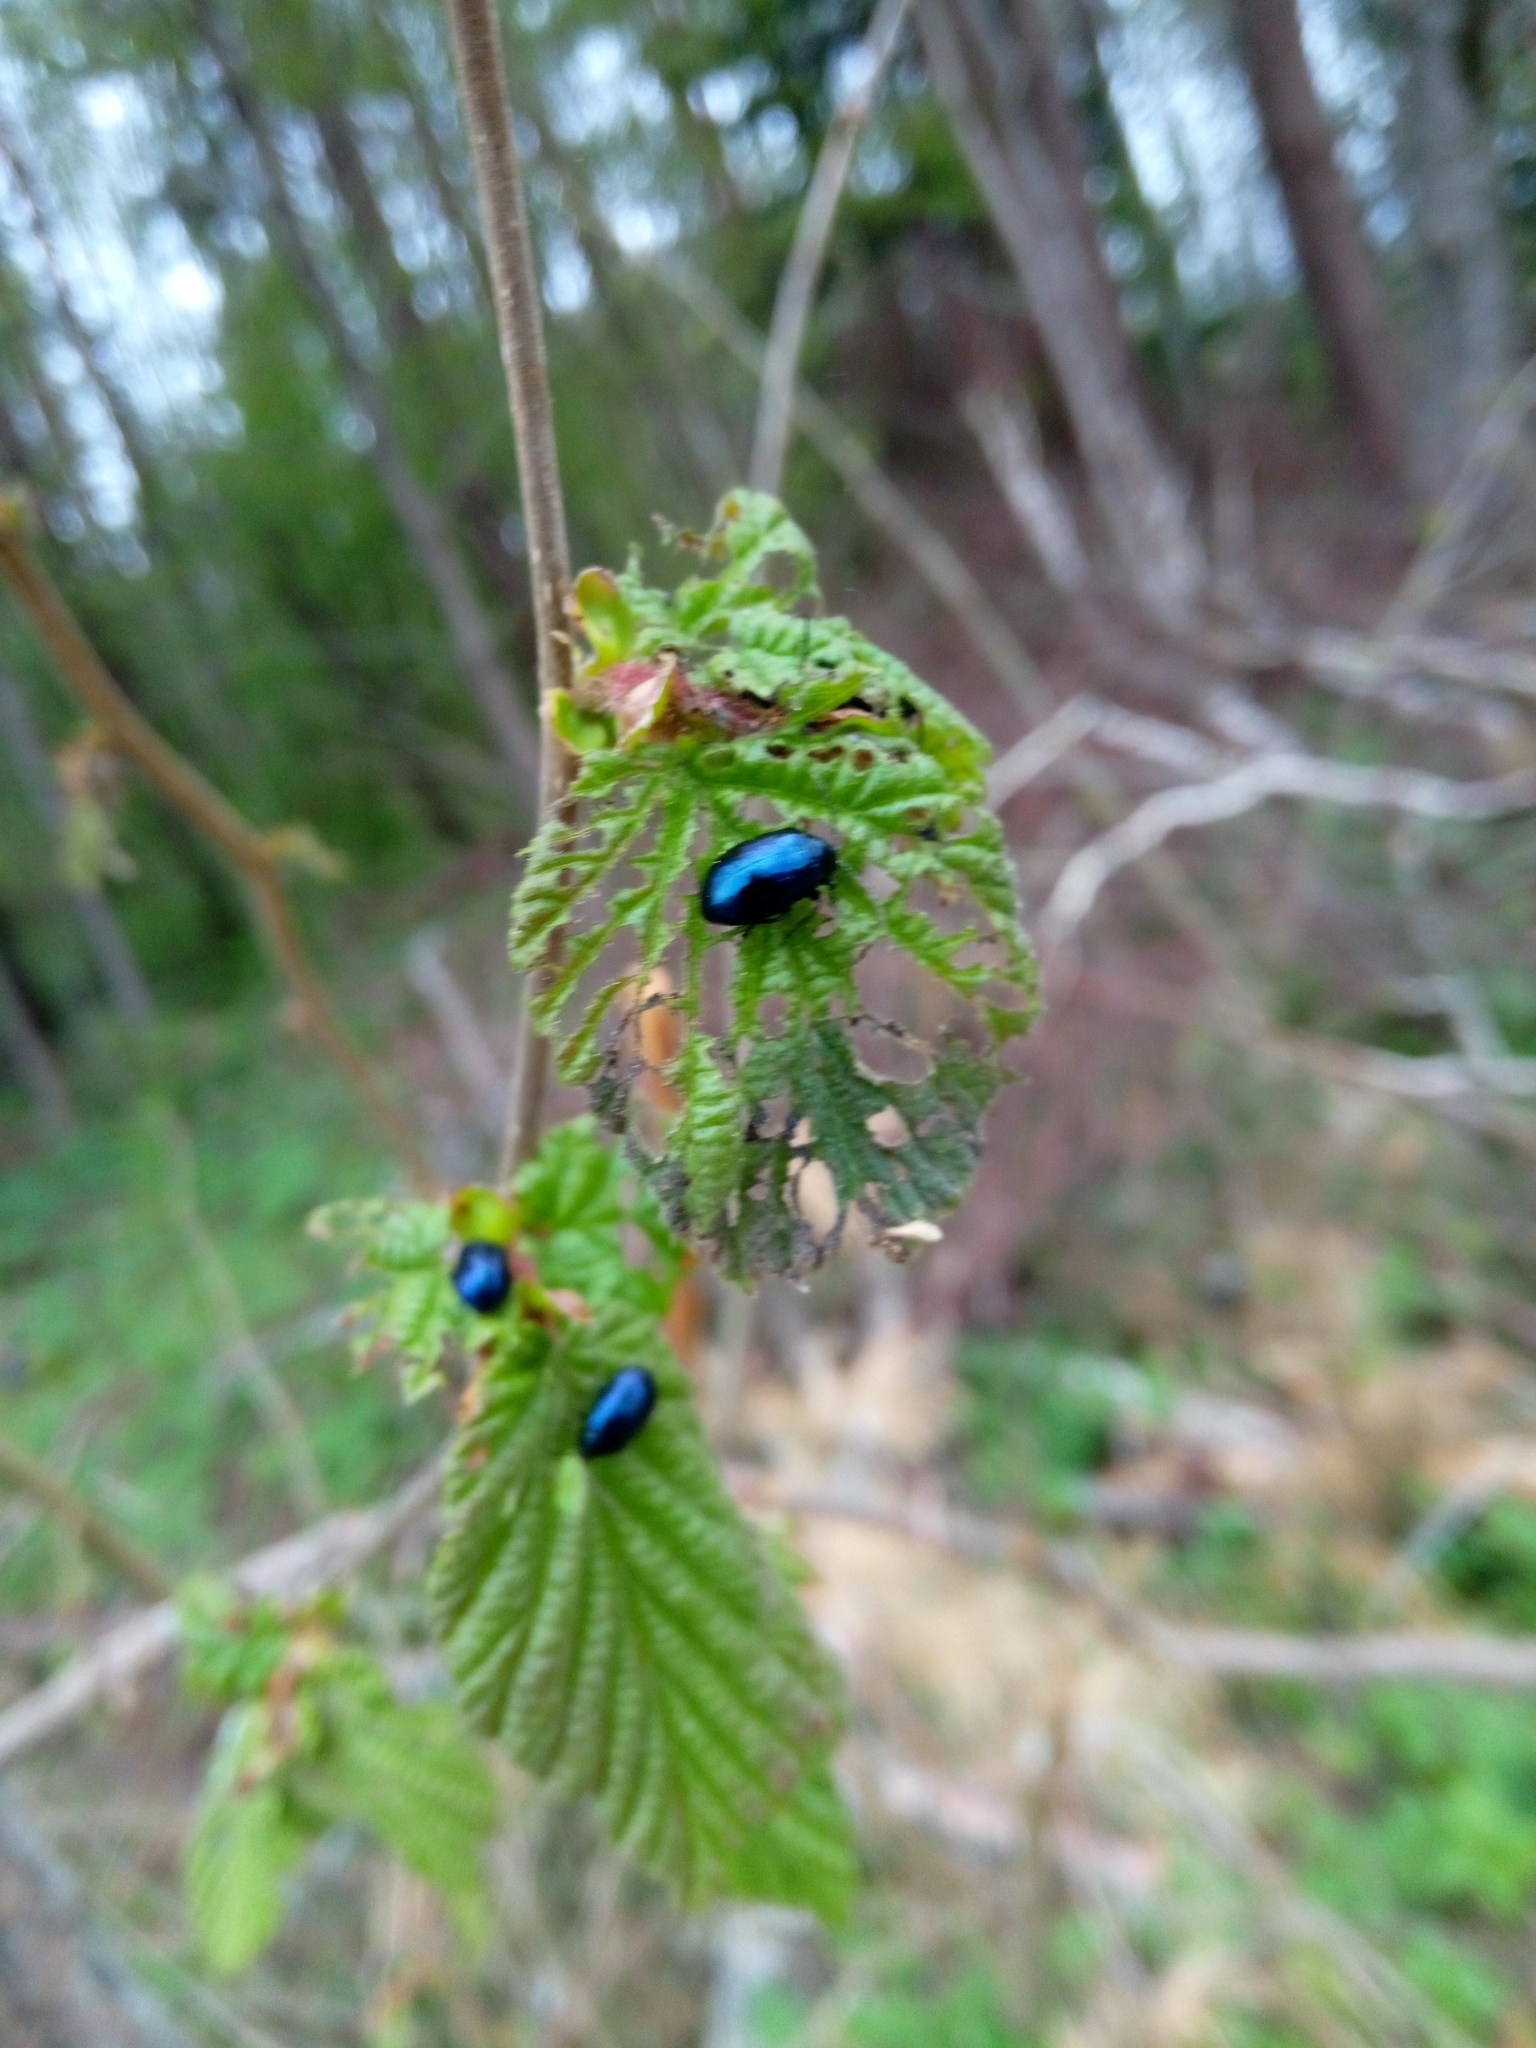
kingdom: Animalia
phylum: Arthropoda
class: Insecta
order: Coleoptera
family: Chrysomelidae
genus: Agelastica
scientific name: Agelastica alni
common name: Alder leaf beetle
